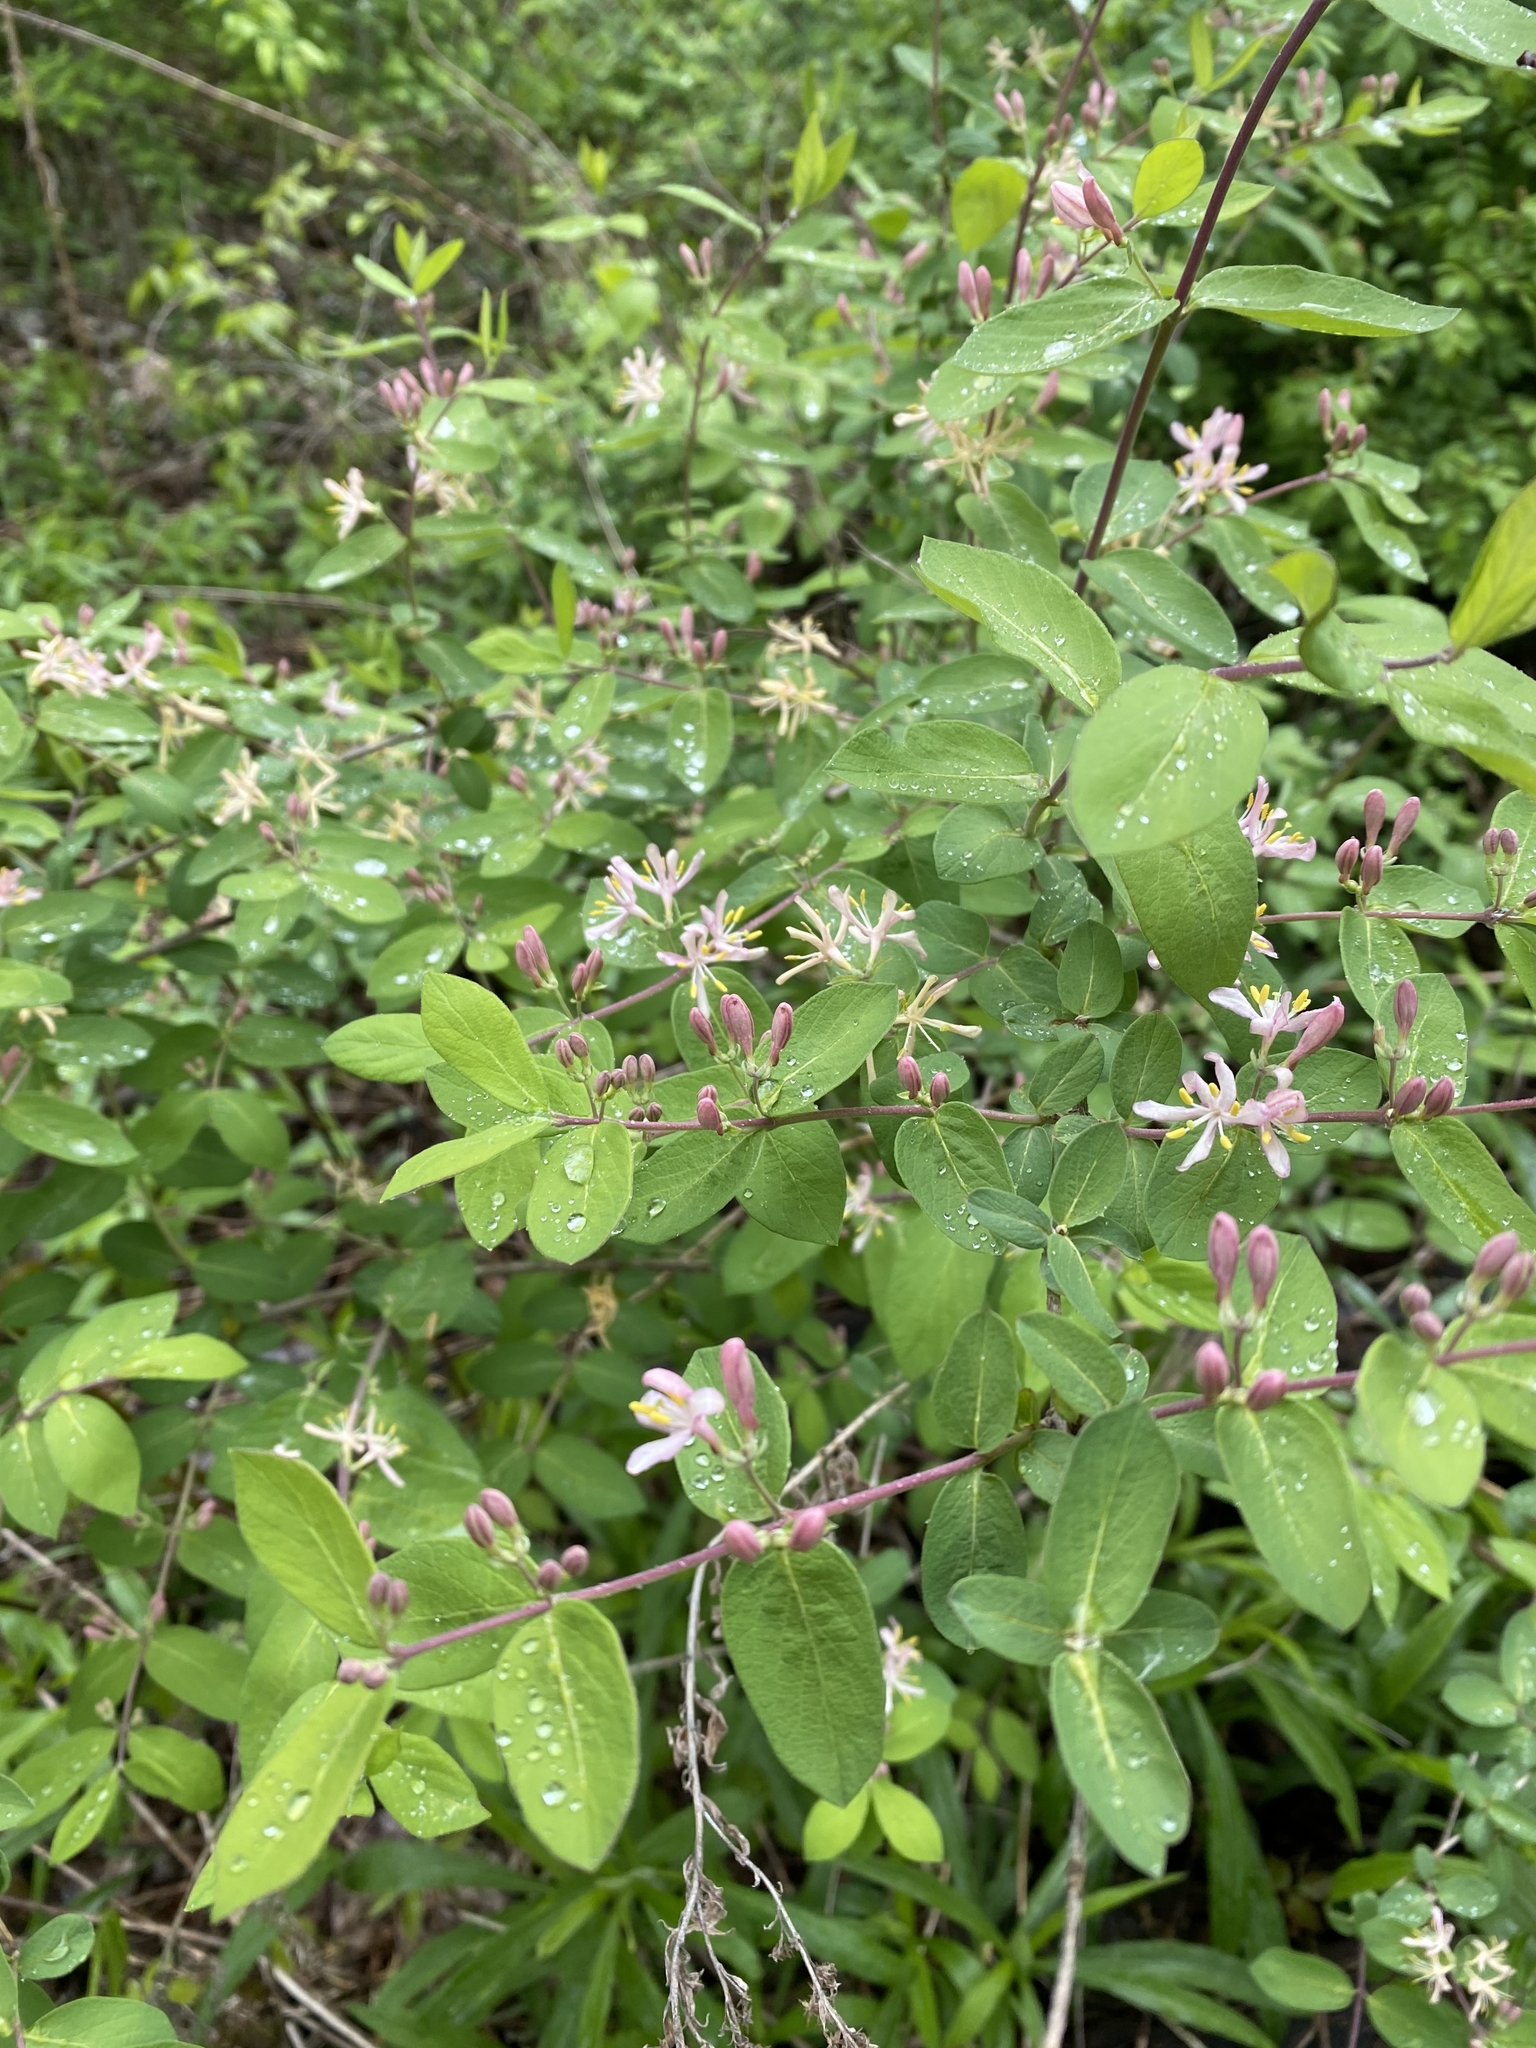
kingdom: Plantae
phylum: Tracheophyta
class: Magnoliopsida
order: Dipsacales
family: Caprifoliaceae
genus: Lonicera
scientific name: Lonicera bella
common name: Bell's honeysuckle
